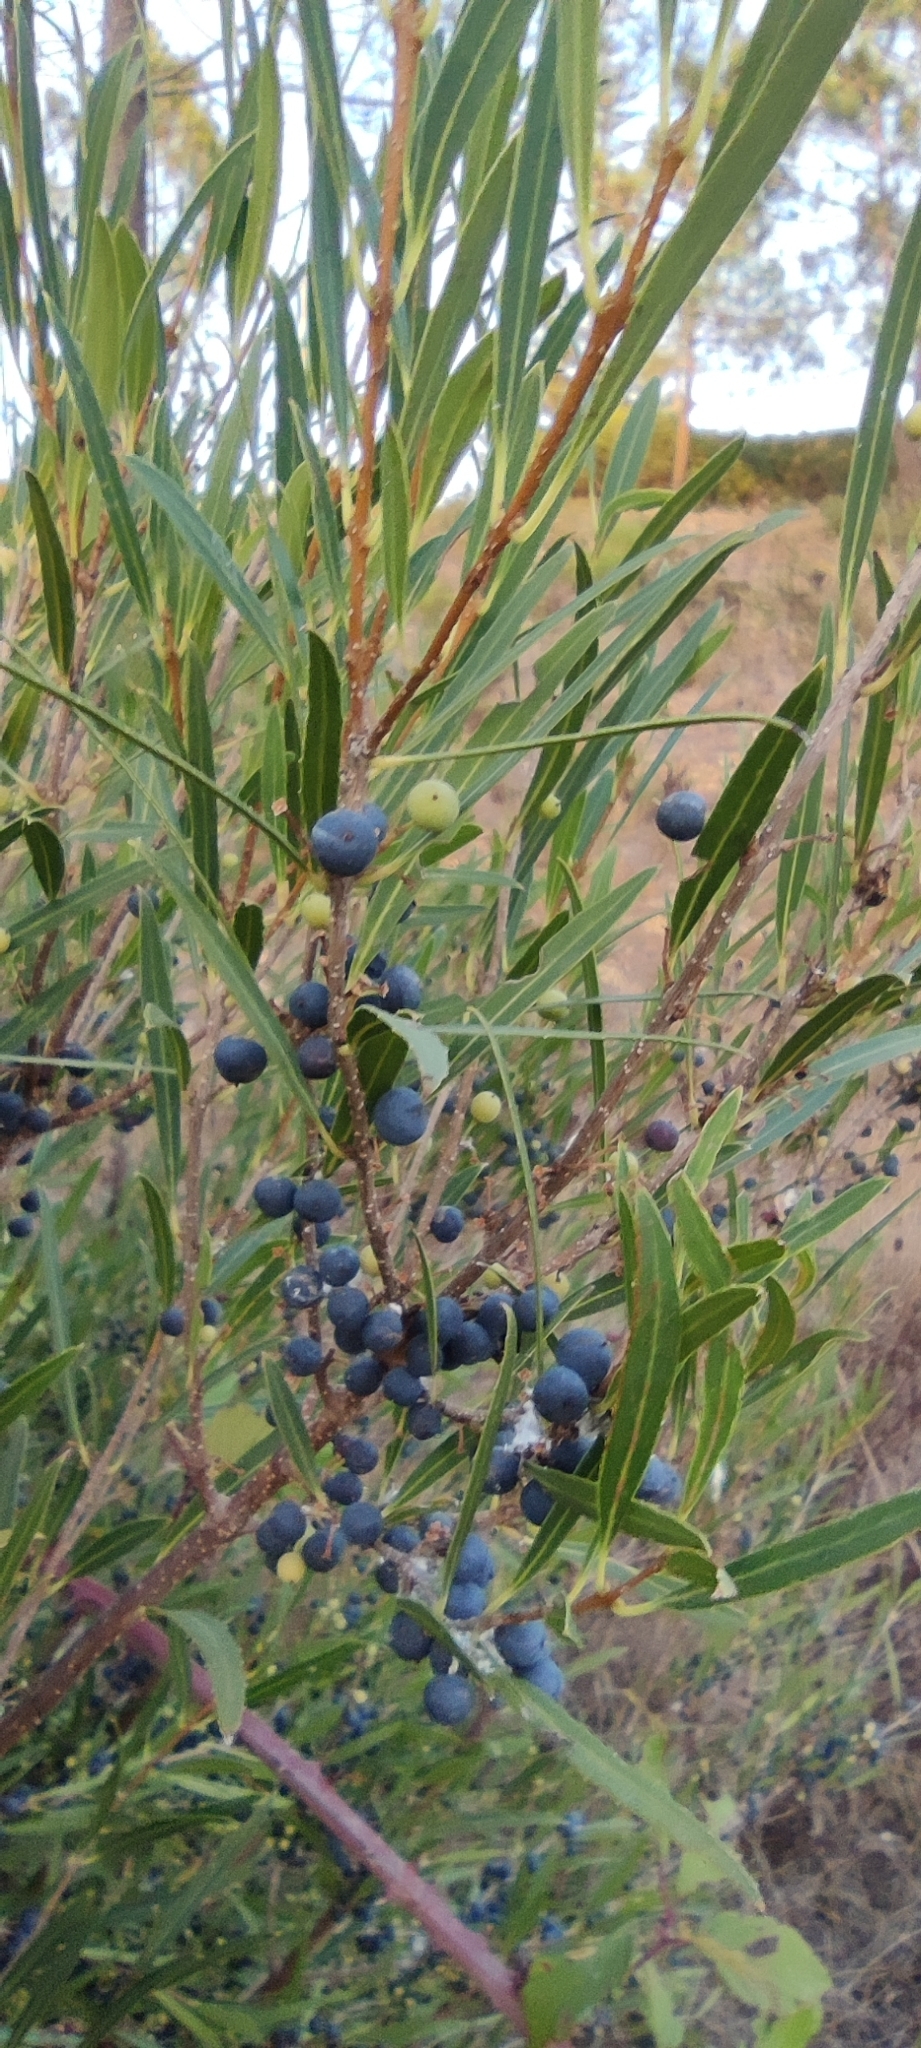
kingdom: Plantae
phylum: Tracheophyta
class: Magnoliopsida
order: Lamiales
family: Oleaceae
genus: Phillyrea
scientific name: Phillyrea angustifolia
